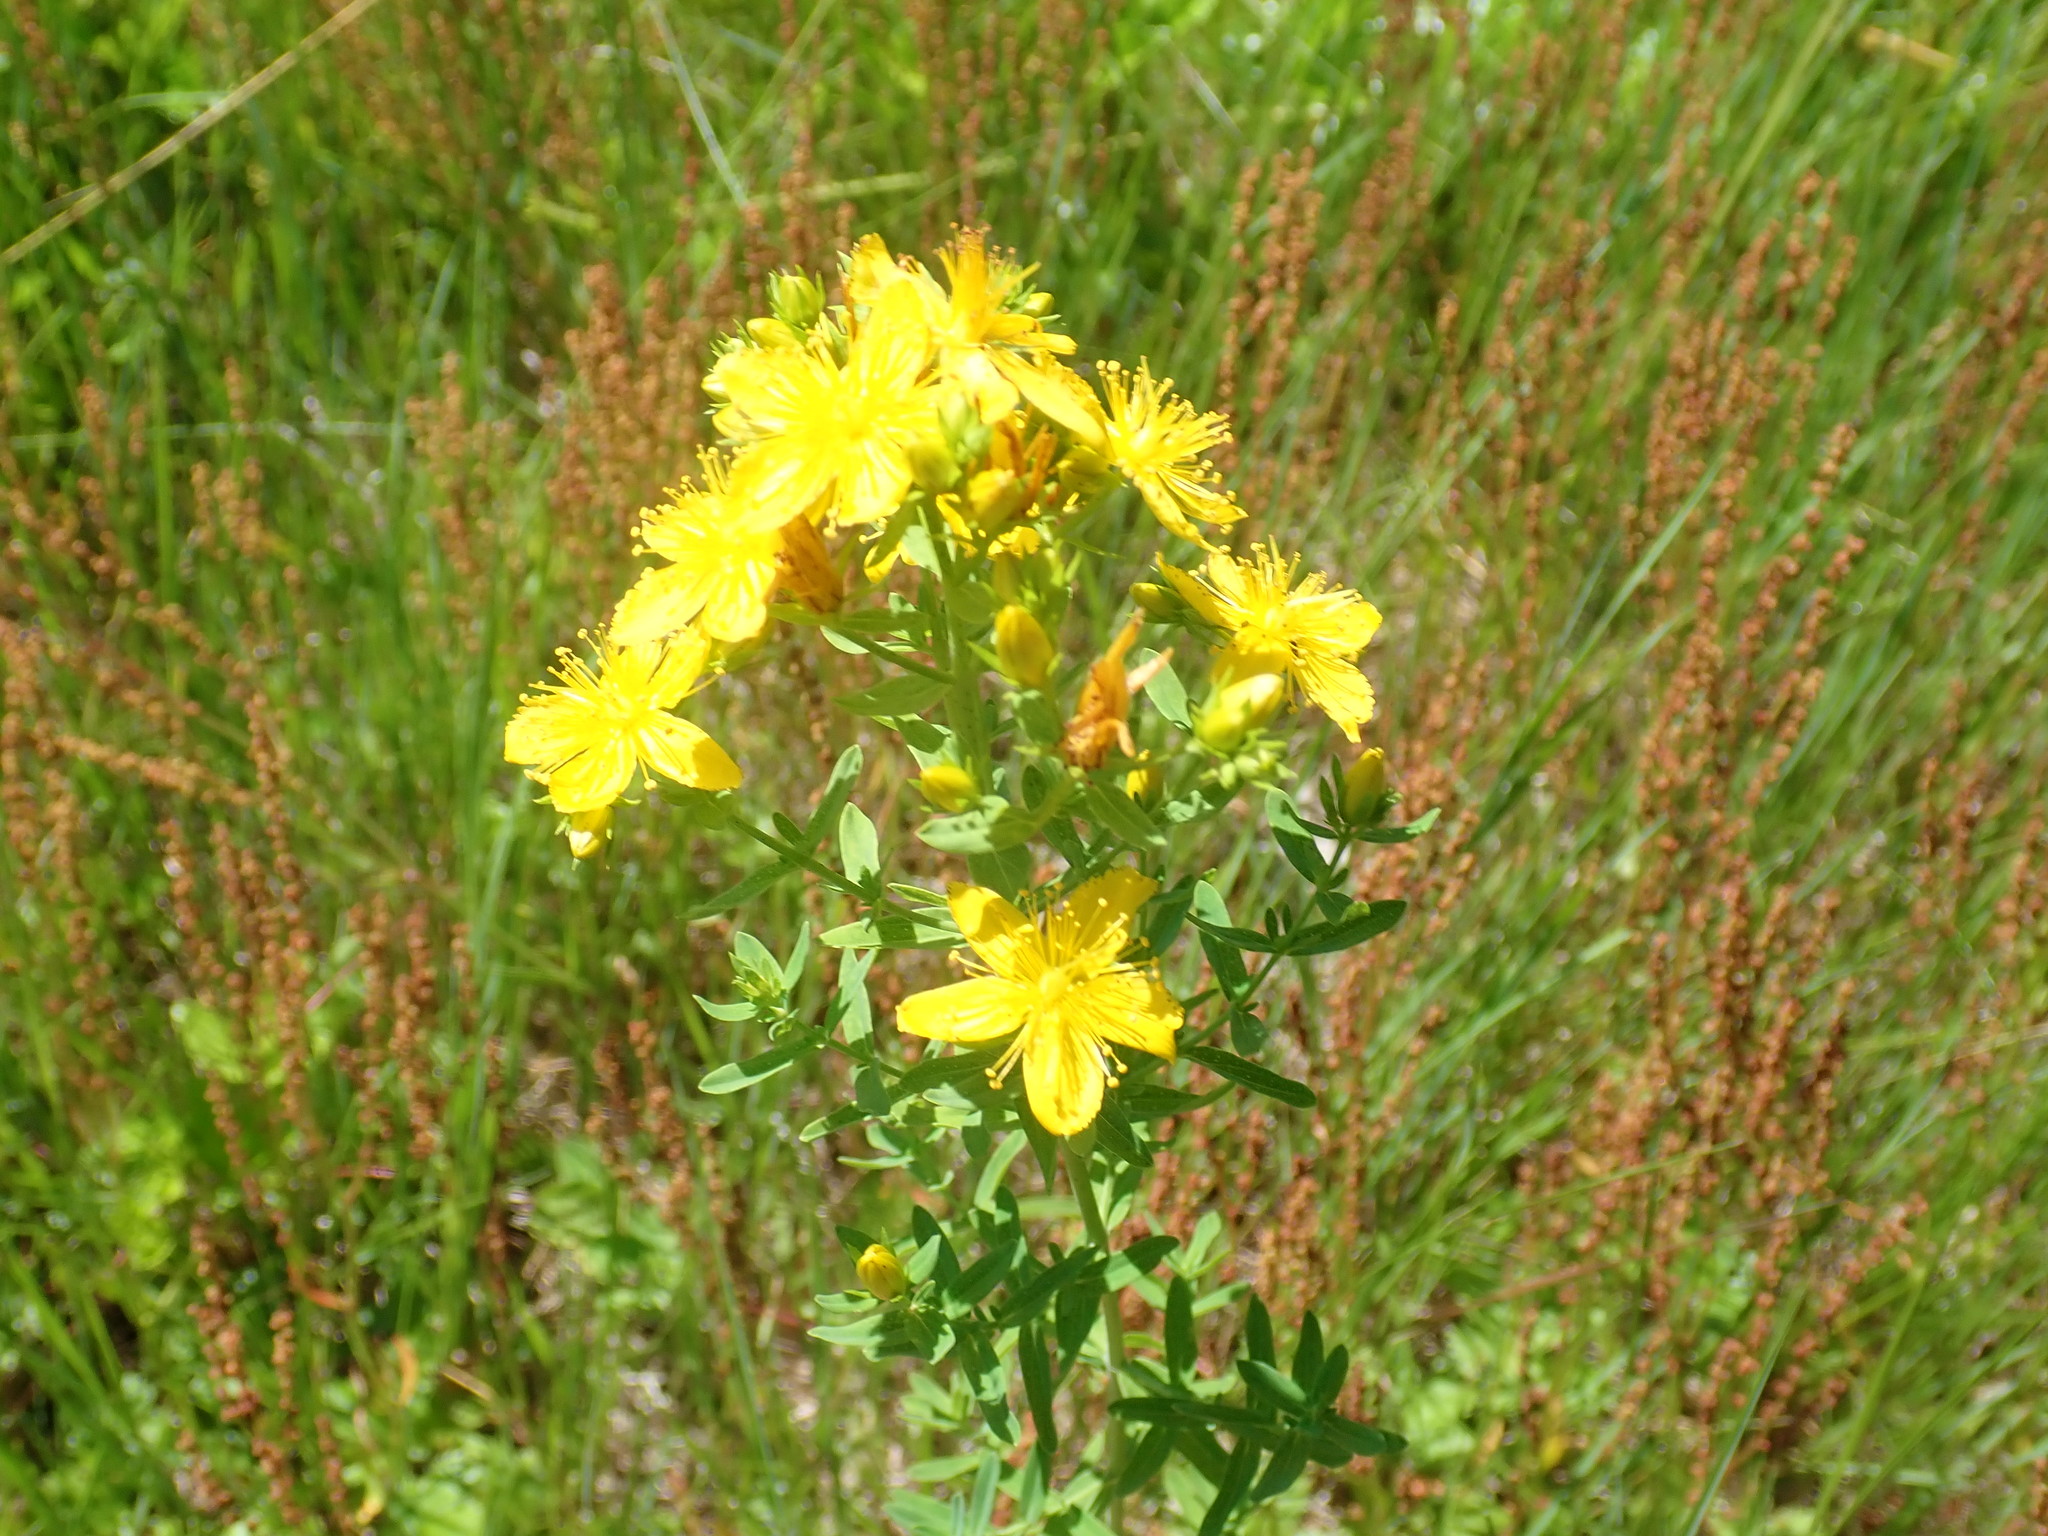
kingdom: Plantae
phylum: Tracheophyta
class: Magnoliopsida
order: Malpighiales
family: Hypericaceae
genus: Hypericum
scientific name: Hypericum perforatum
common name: Common st. johnswort
